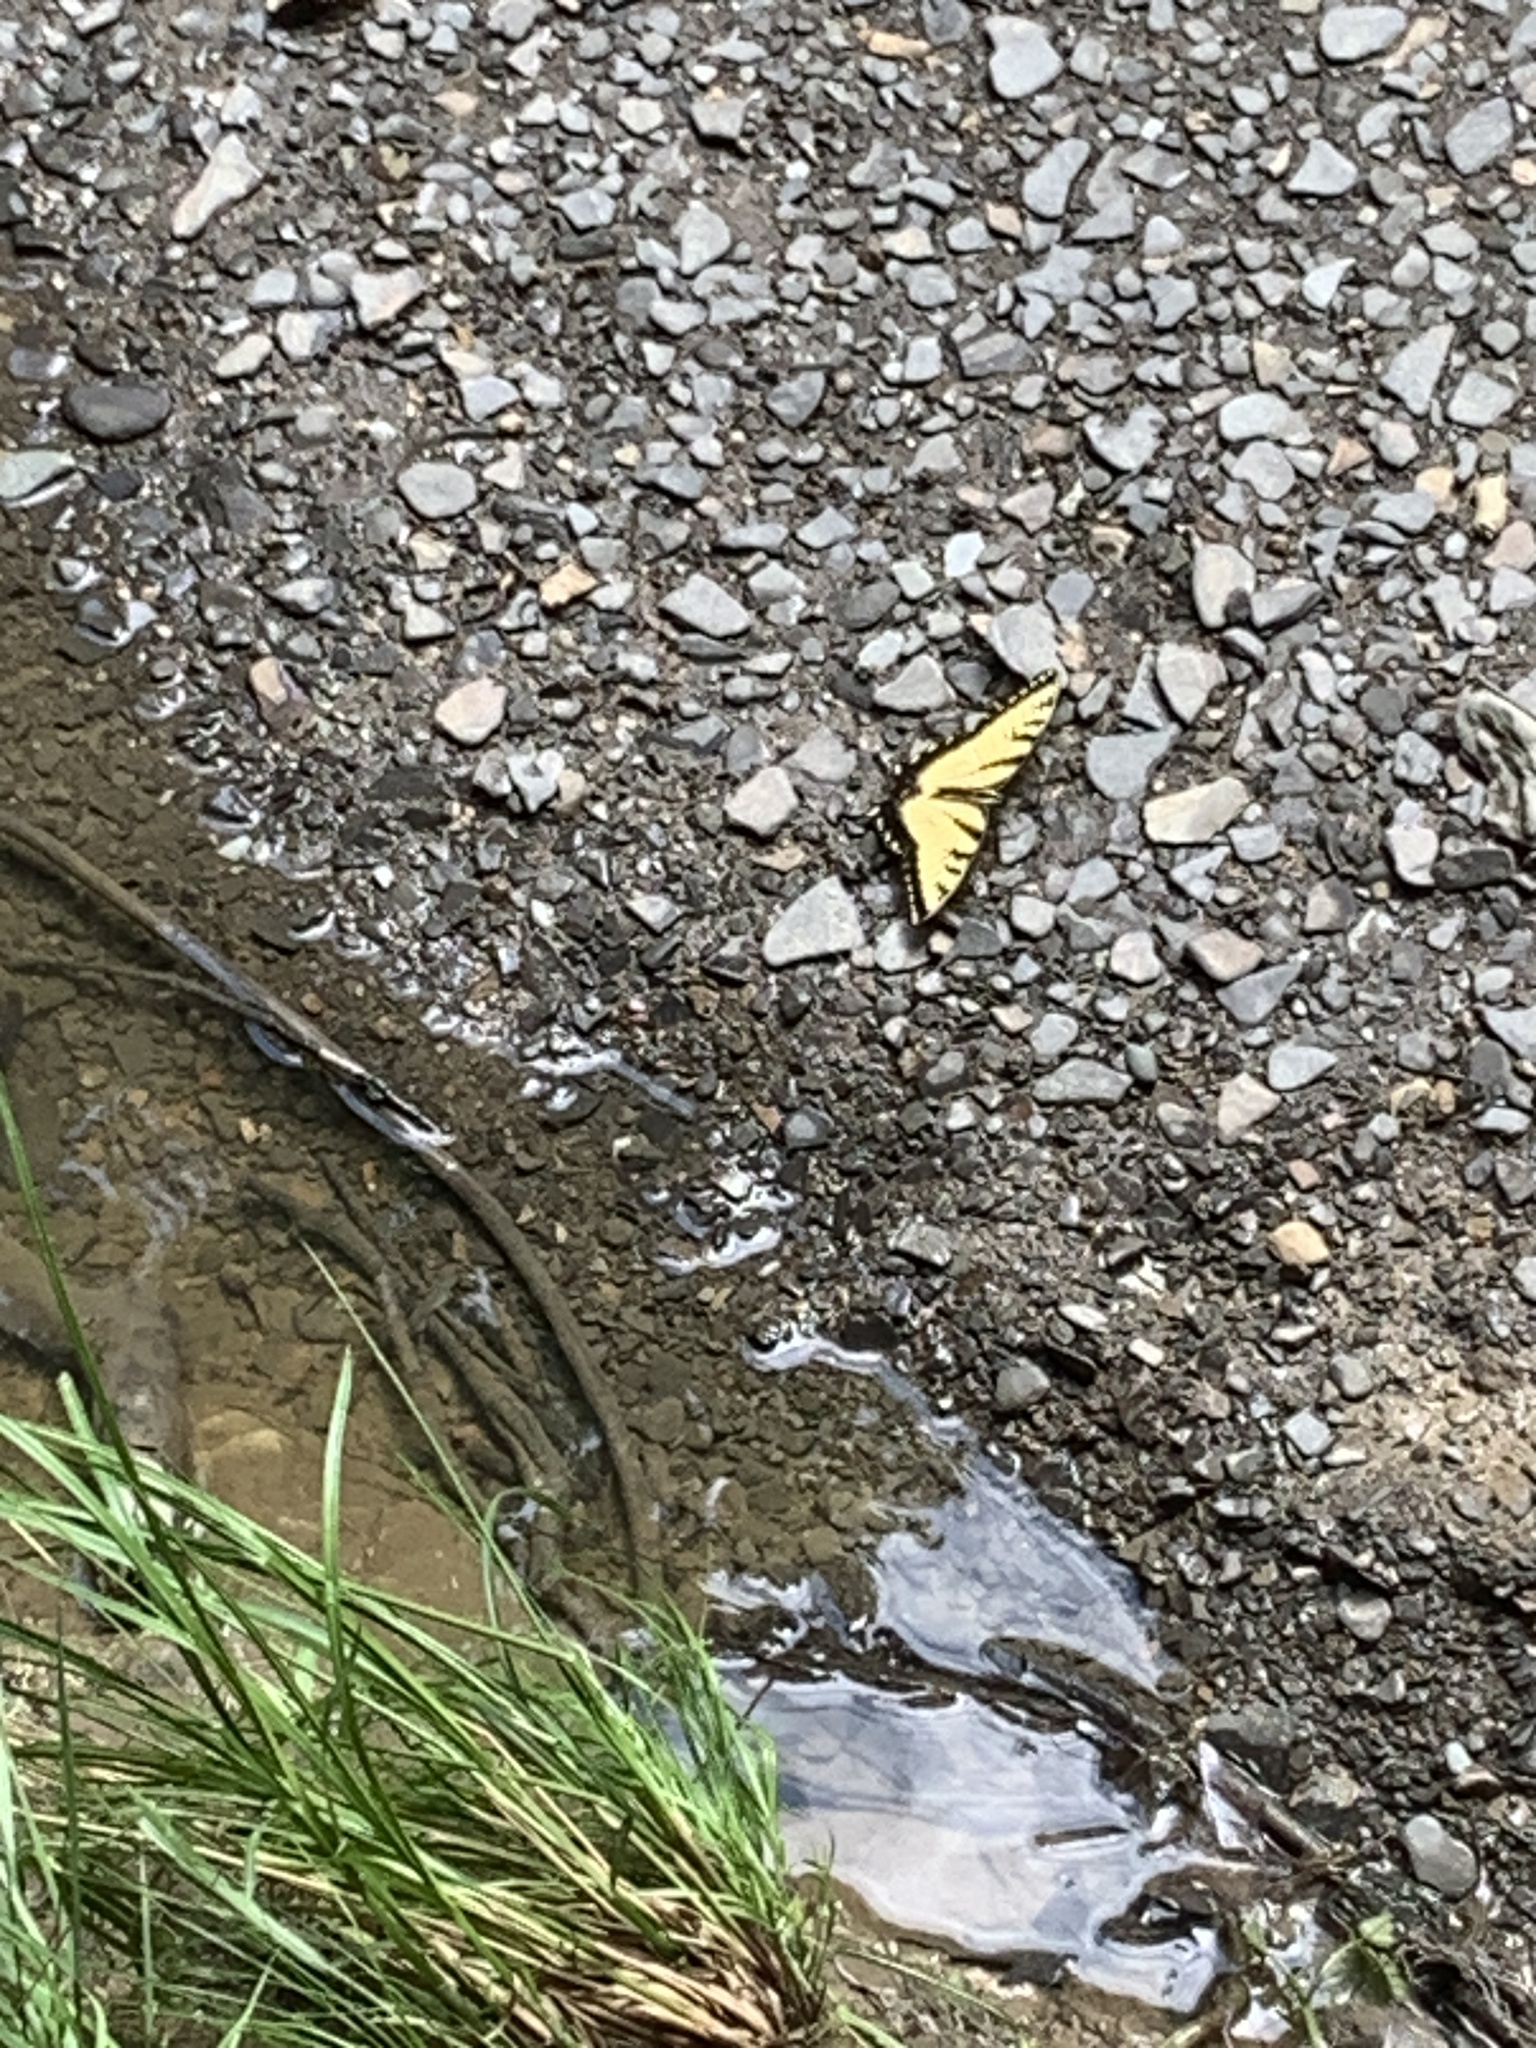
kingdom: Animalia
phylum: Arthropoda
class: Insecta
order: Lepidoptera
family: Papilionidae
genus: Papilio
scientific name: Papilio glaucus
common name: Tiger swallowtail
